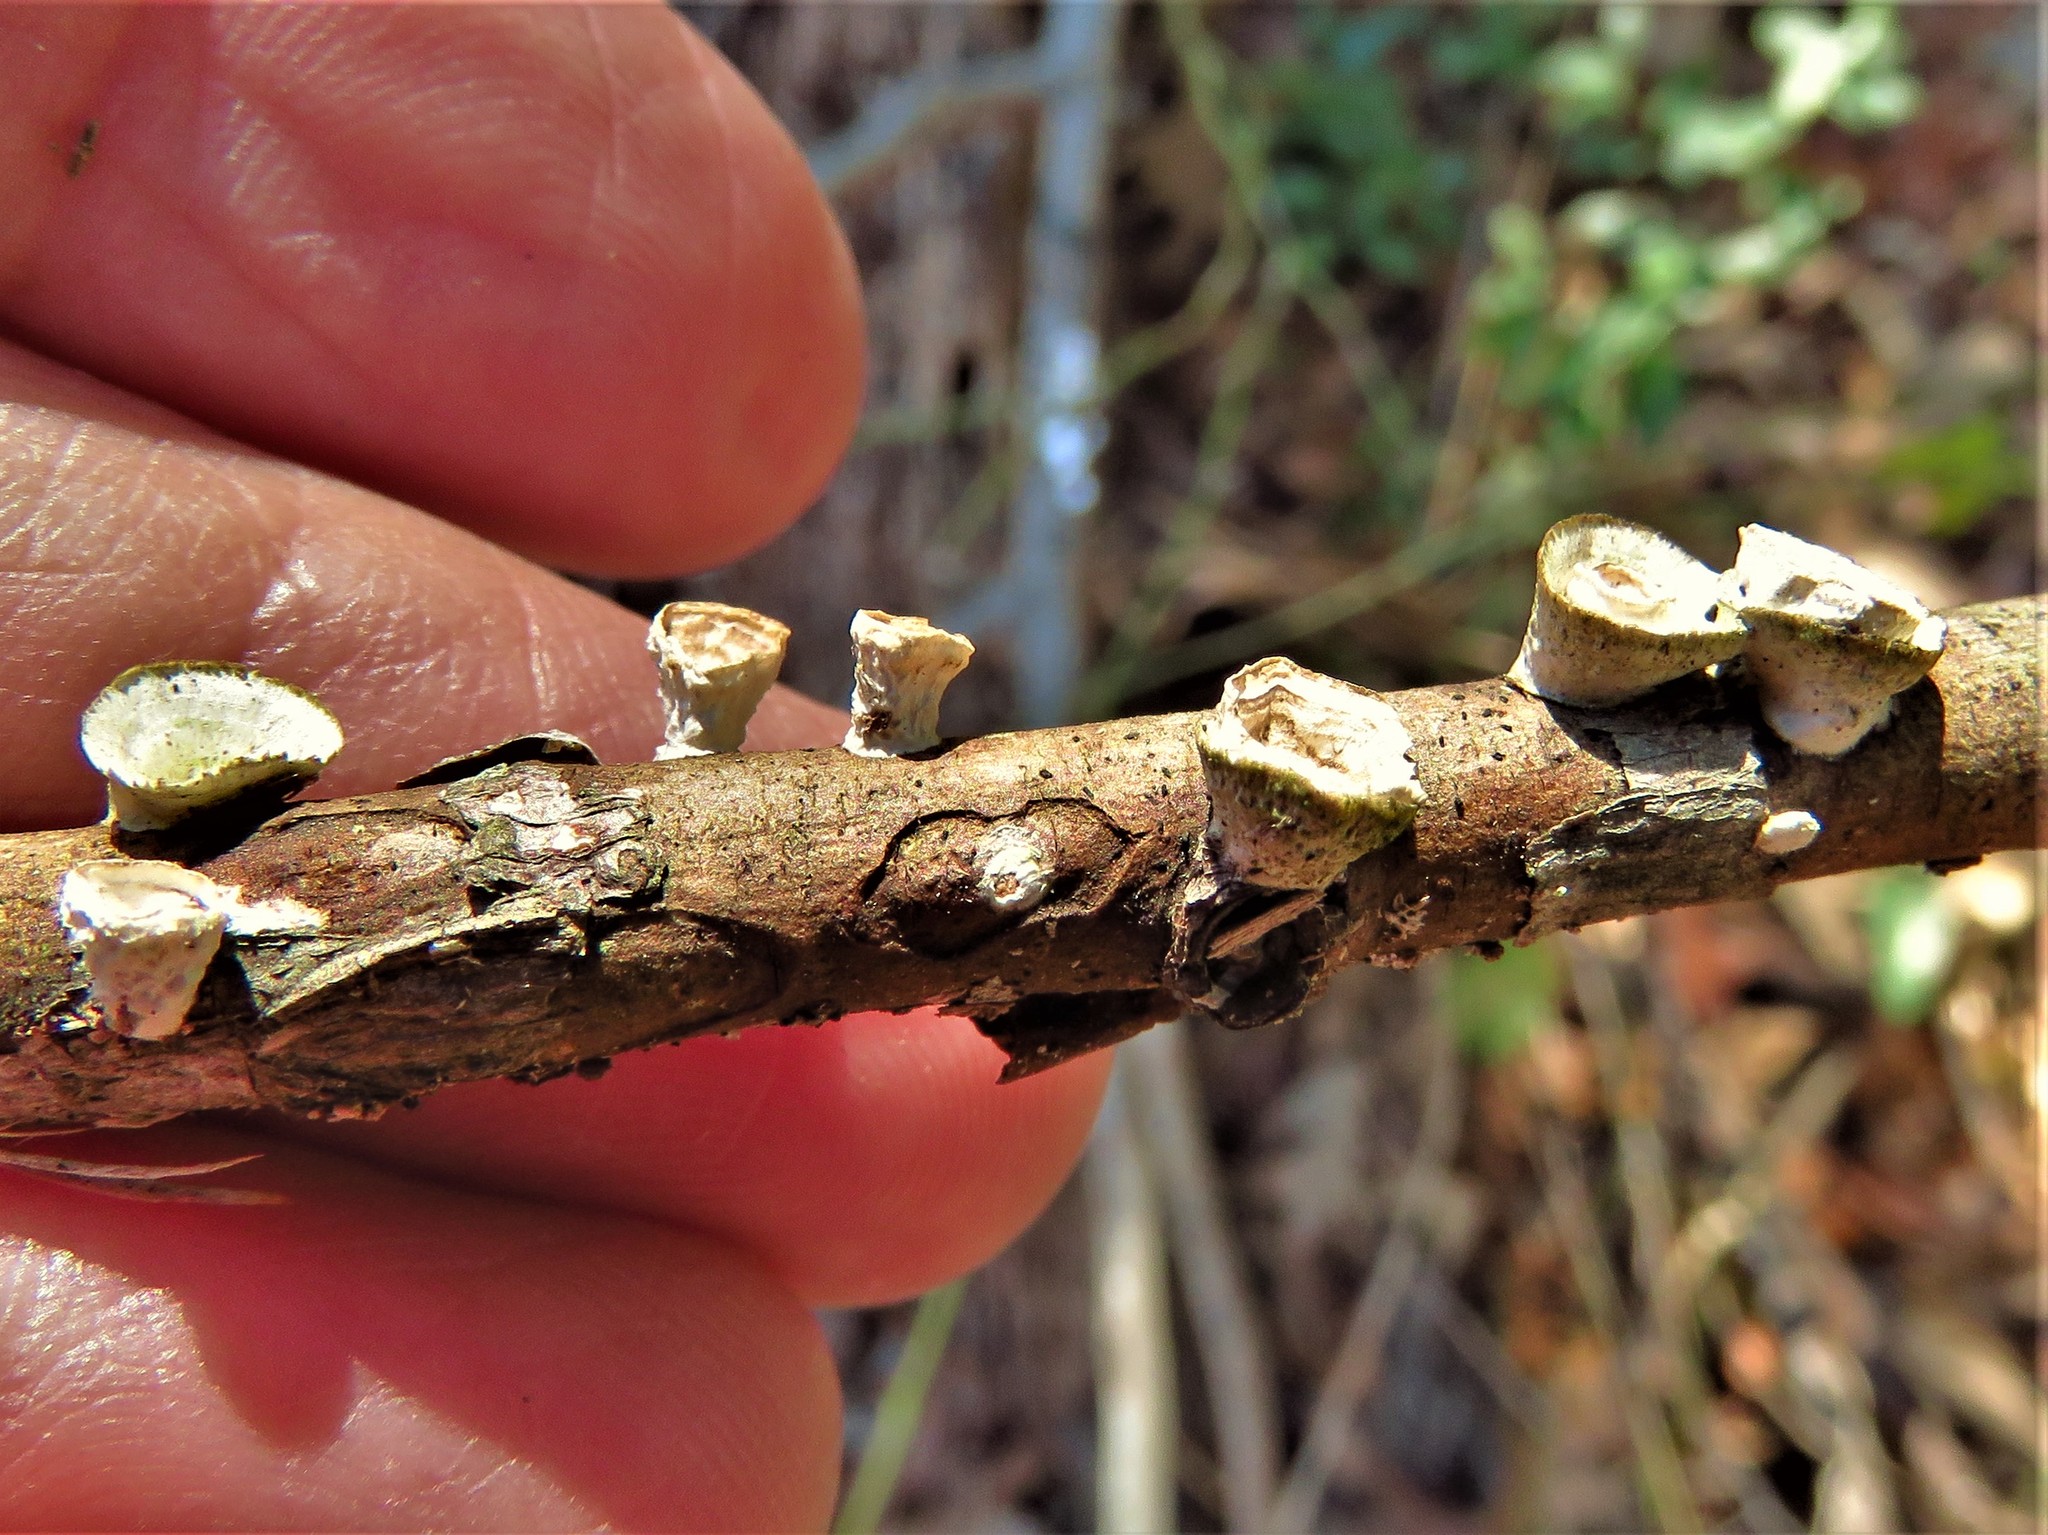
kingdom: Fungi
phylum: Basidiomycota
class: Agaricomycetes
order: Polyporales
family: Polyporaceae
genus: Poronidulus
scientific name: Poronidulus conchifer
